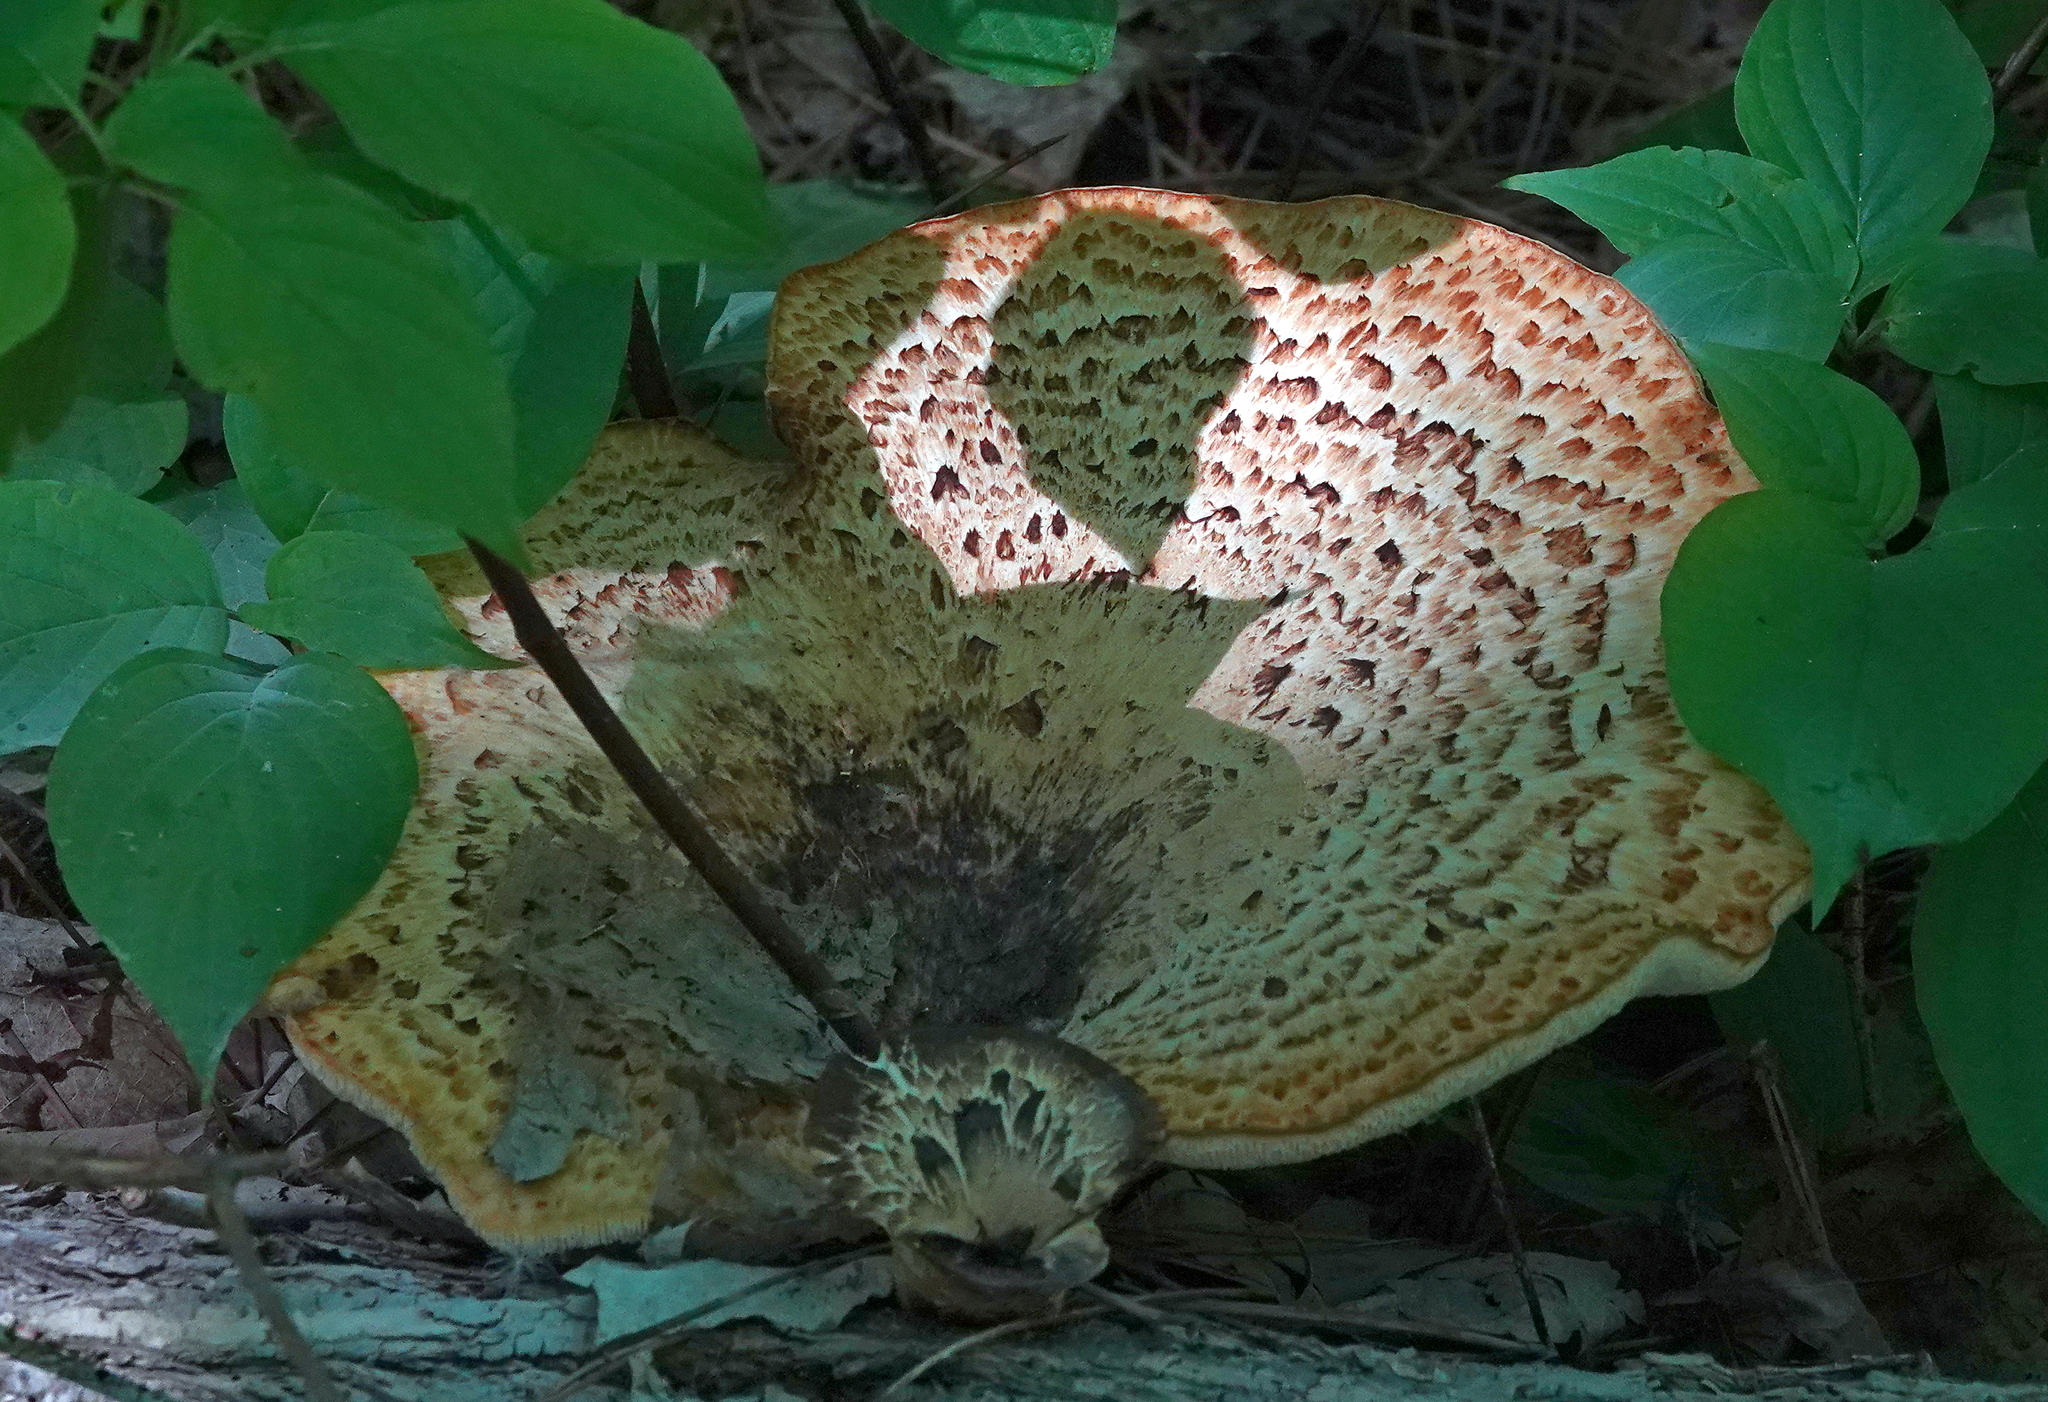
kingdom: Fungi
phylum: Basidiomycota
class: Agaricomycetes
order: Polyporales
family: Polyporaceae
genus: Cerioporus
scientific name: Cerioporus squamosus
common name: Dryad's saddle
